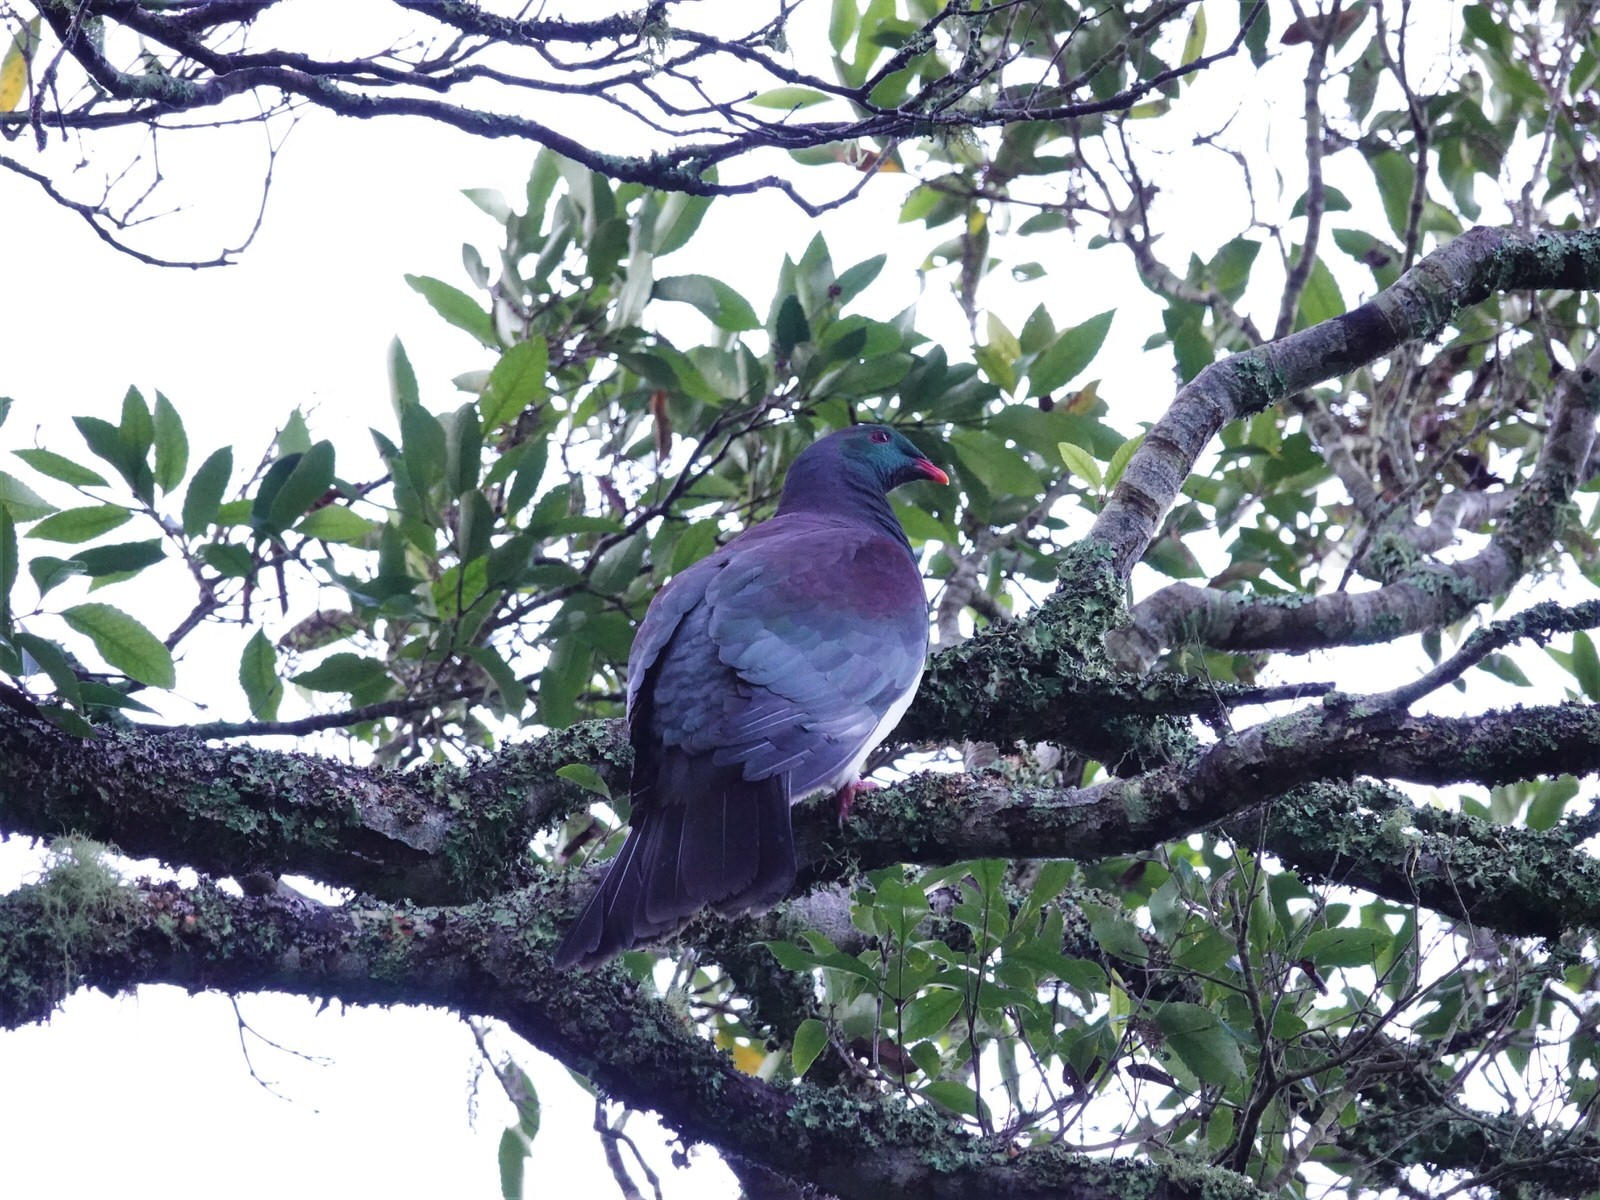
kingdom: Animalia
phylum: Chordata
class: Aves
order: Columbiformes
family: Columbidae
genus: Hemiphaga
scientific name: Hemiphaga novaeseelandiae
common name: New zealand pigeon
